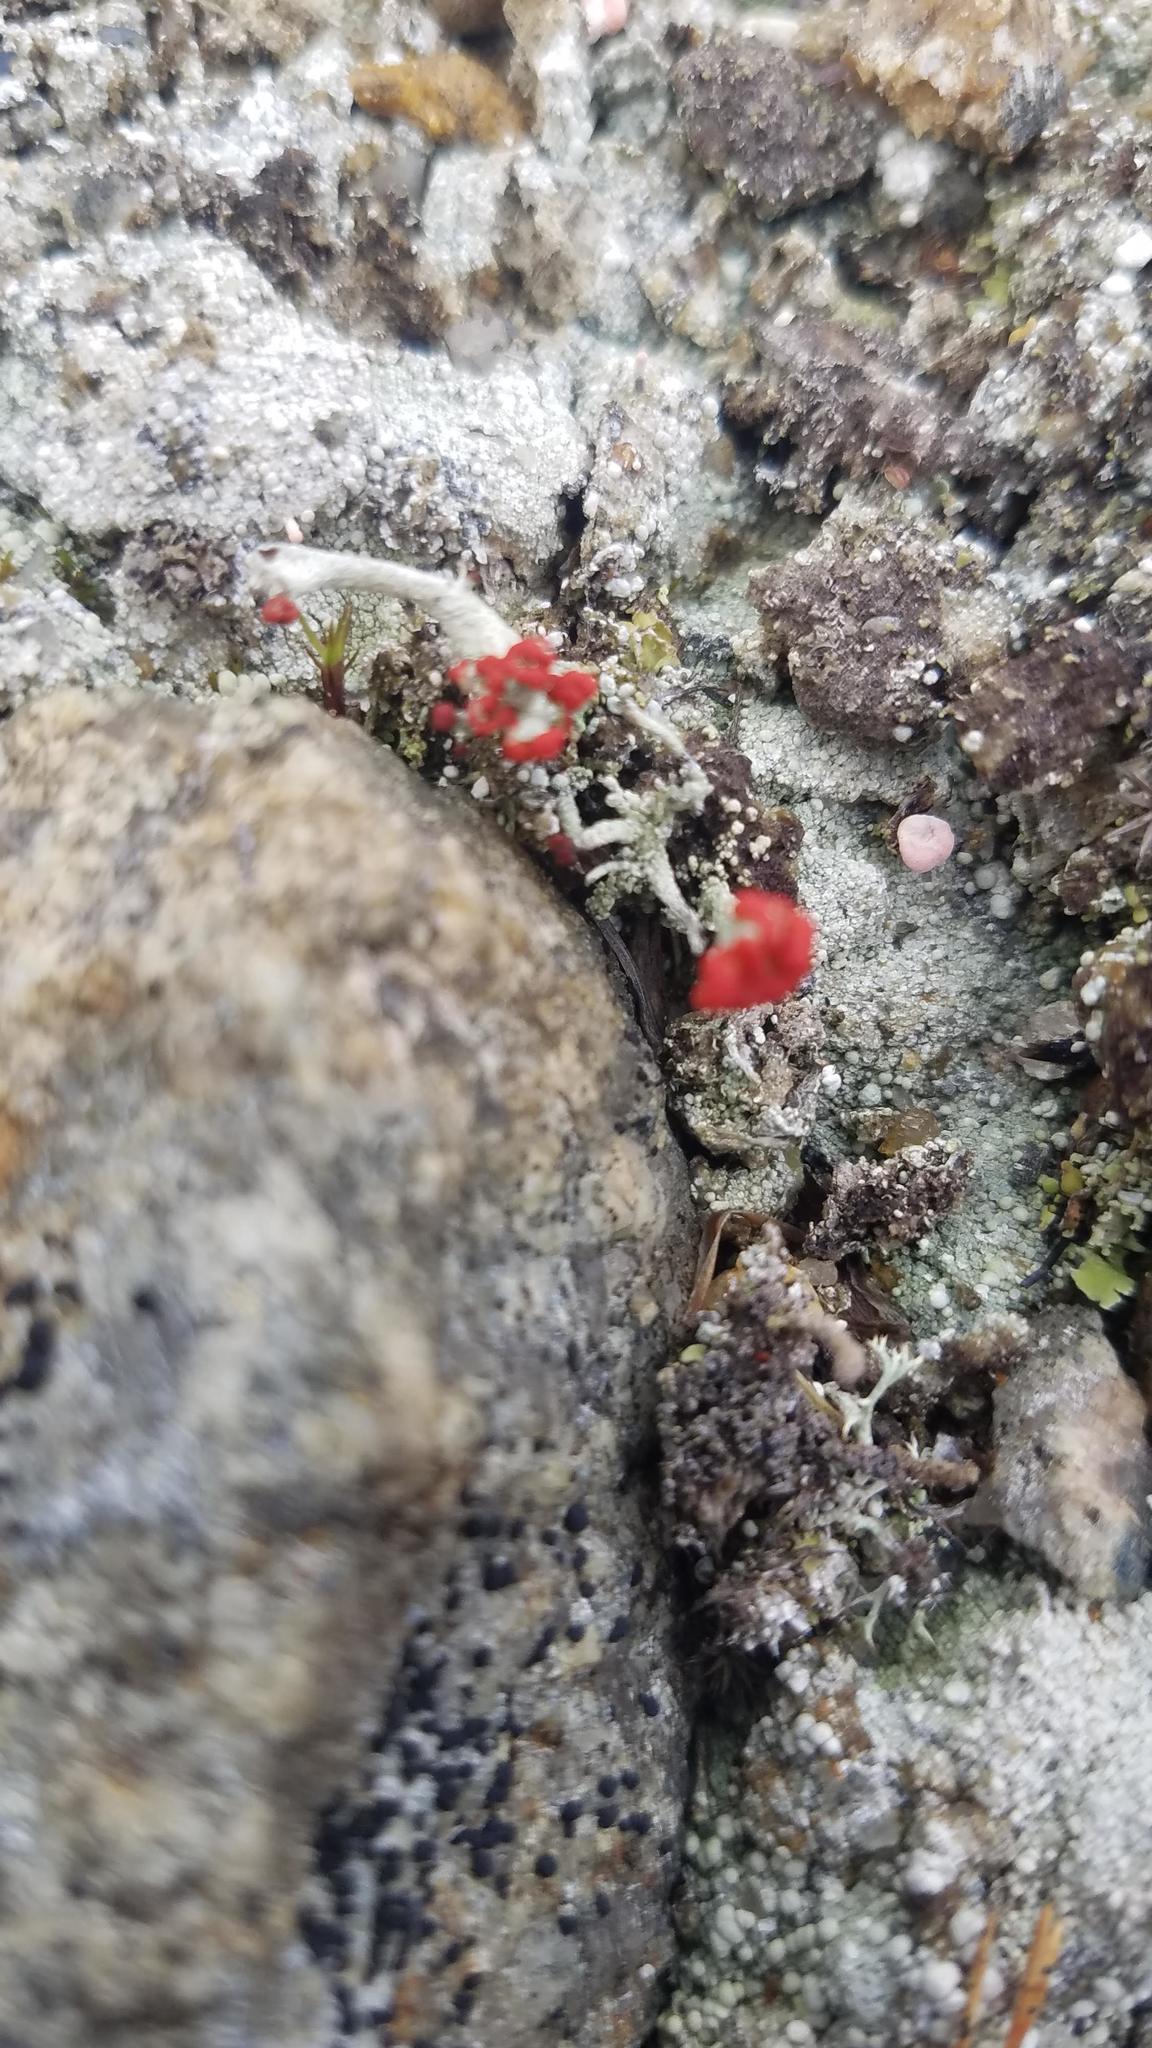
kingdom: Fungi
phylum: Ascomycota
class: Lecanoromycetes
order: Lecanorales
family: Cladoniaceae
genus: Cladonia
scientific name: Cladonia cristatella
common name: British soldier lichen
